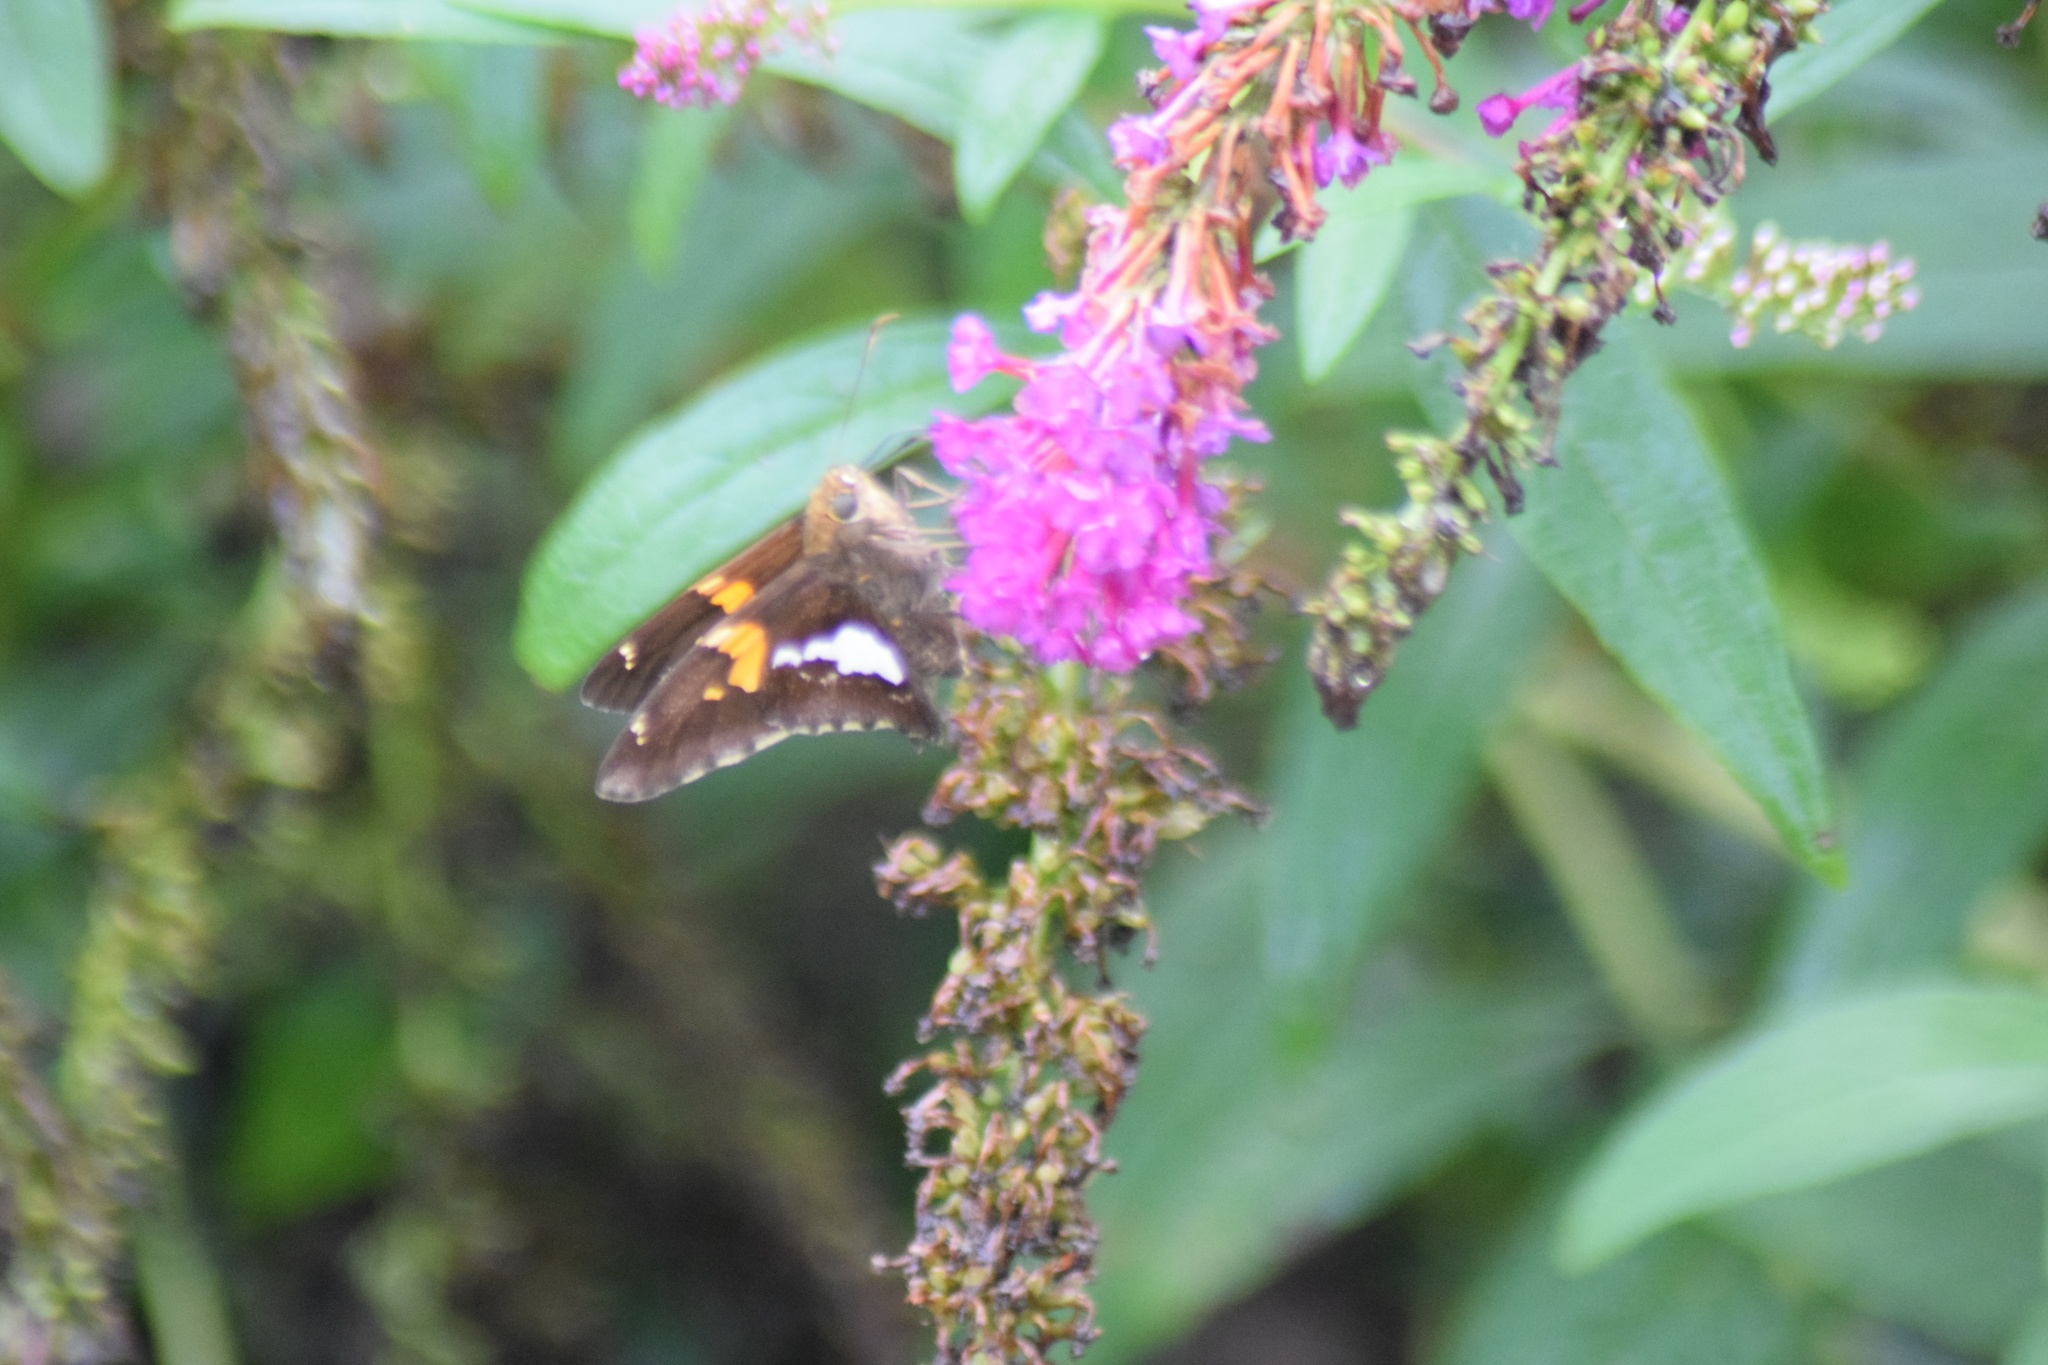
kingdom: Animalia
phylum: Arthropoda
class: Insecta
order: Lepidoptera
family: Hesperiidae
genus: Epargyreus
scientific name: Epargyreus clarus
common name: Silver-spotted skipper
